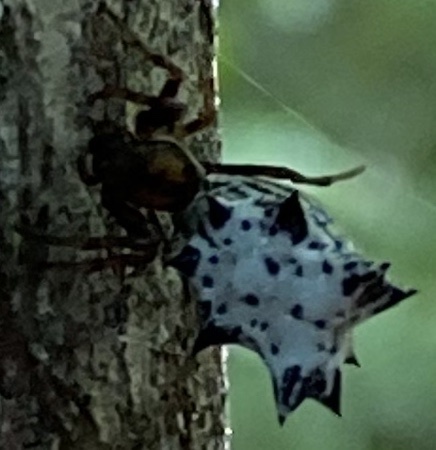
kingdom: Animalia
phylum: Arthropoda
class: Arachnida
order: Araneae
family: Araneidae
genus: Micrathena
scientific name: Micrathena gracilis
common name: Orb weavers
